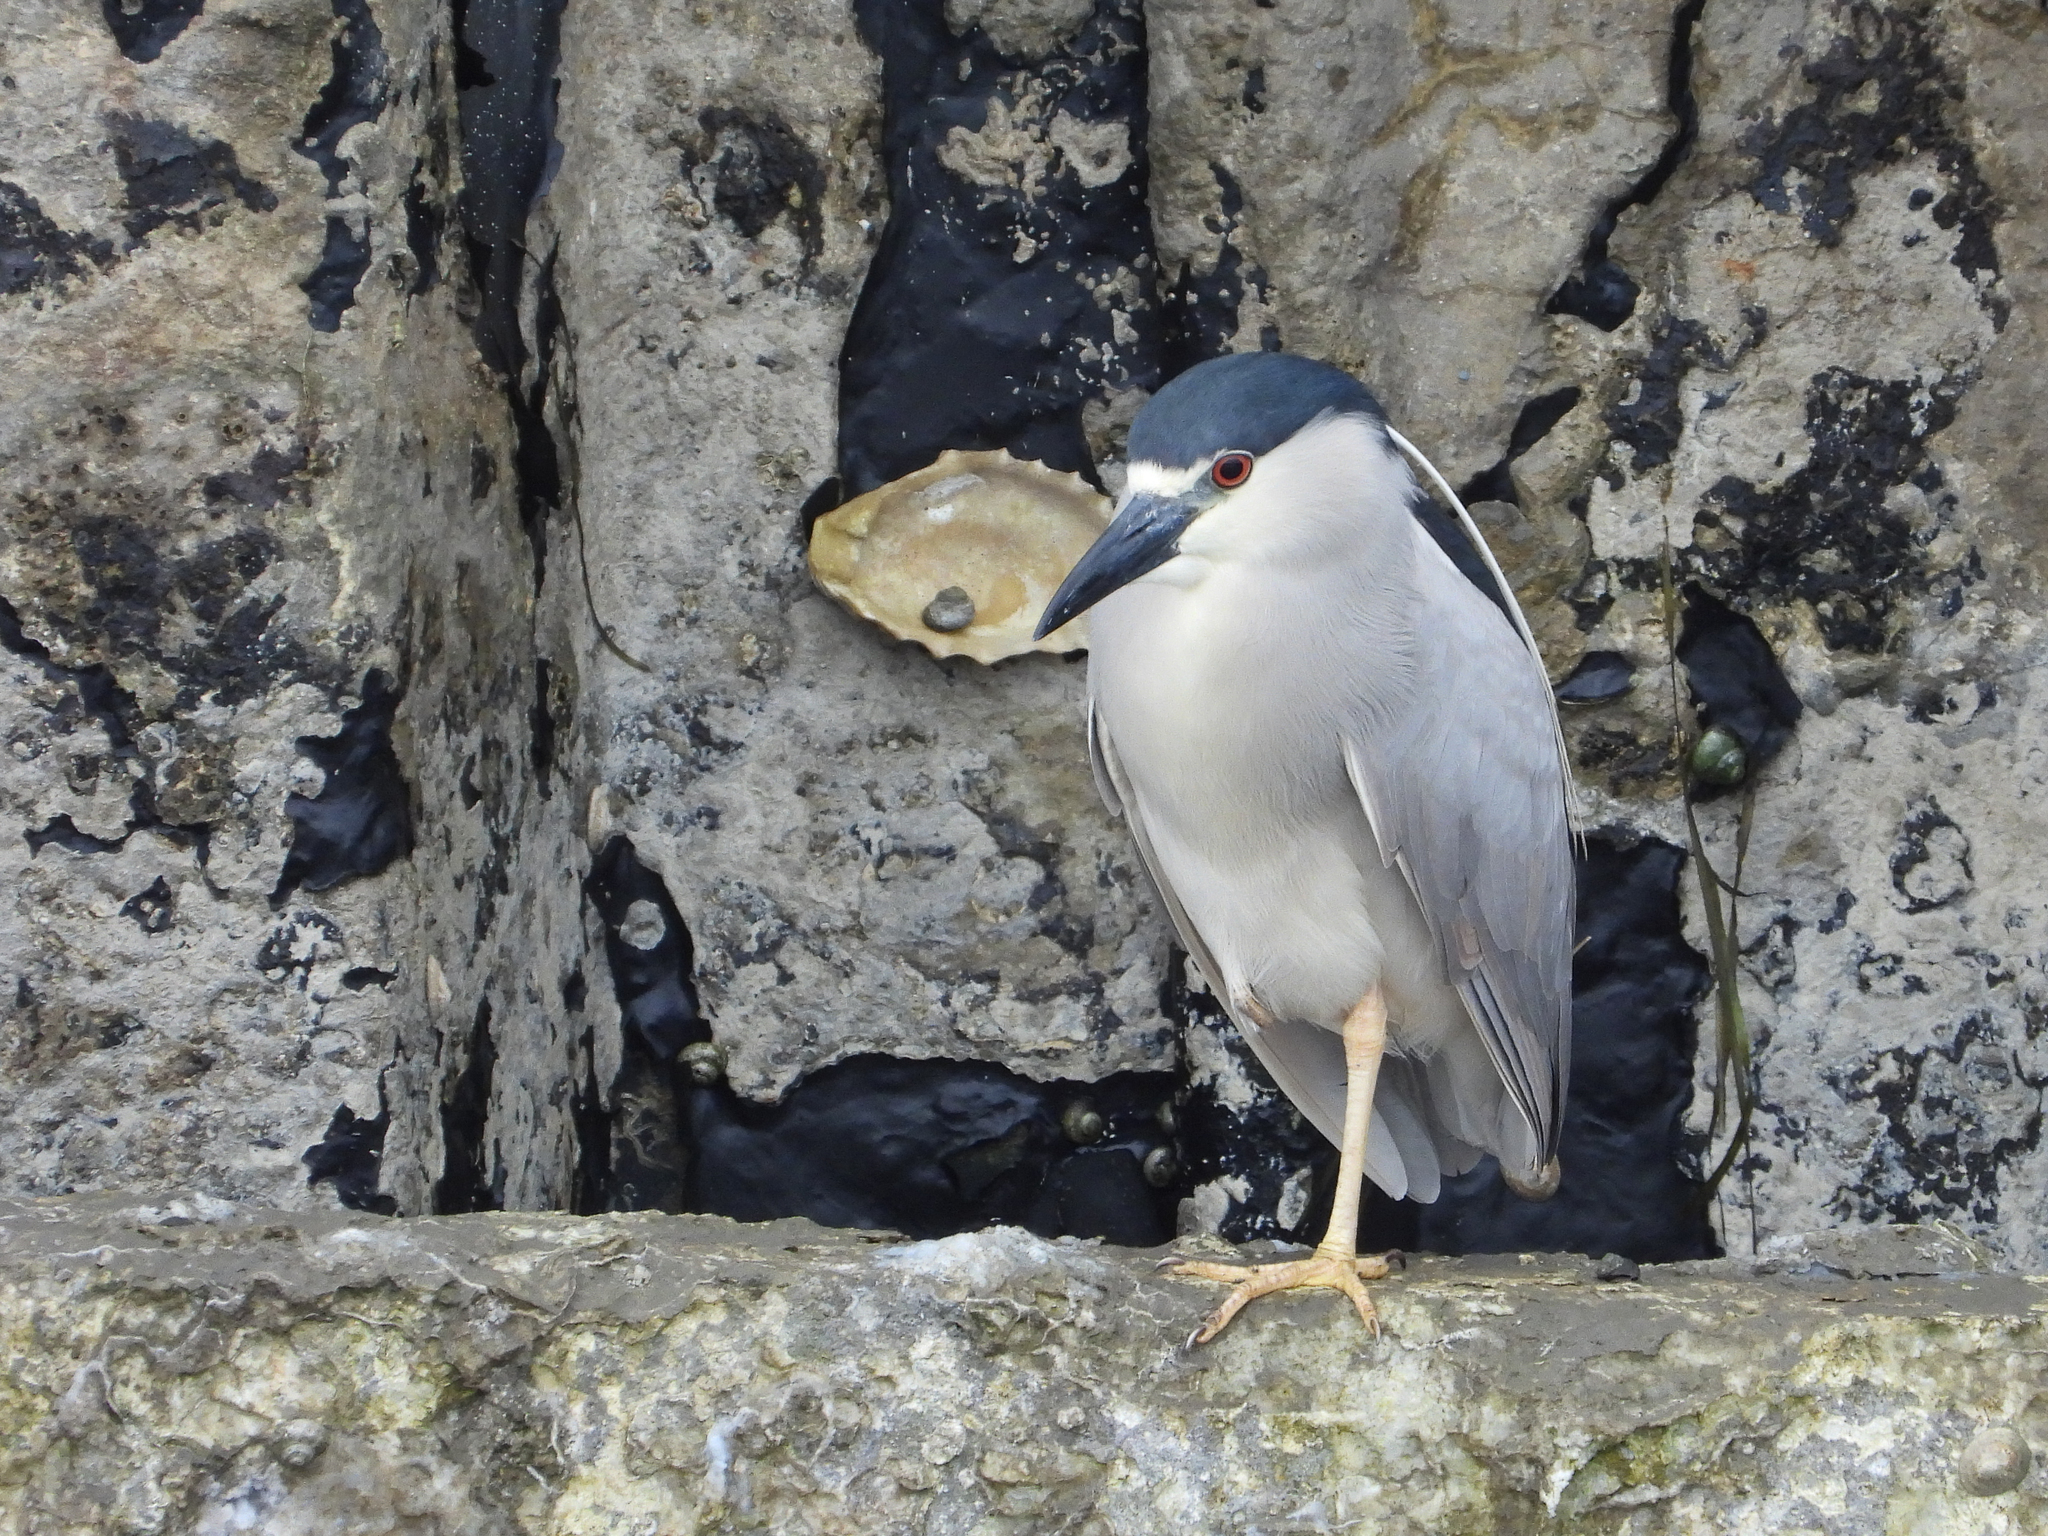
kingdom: Animalia
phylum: Chordata
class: Aves
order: Pelecaniformes
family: Ardeidae
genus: Nycticorax
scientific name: Nycticorax nycticorax
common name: Black-crowned night heron
